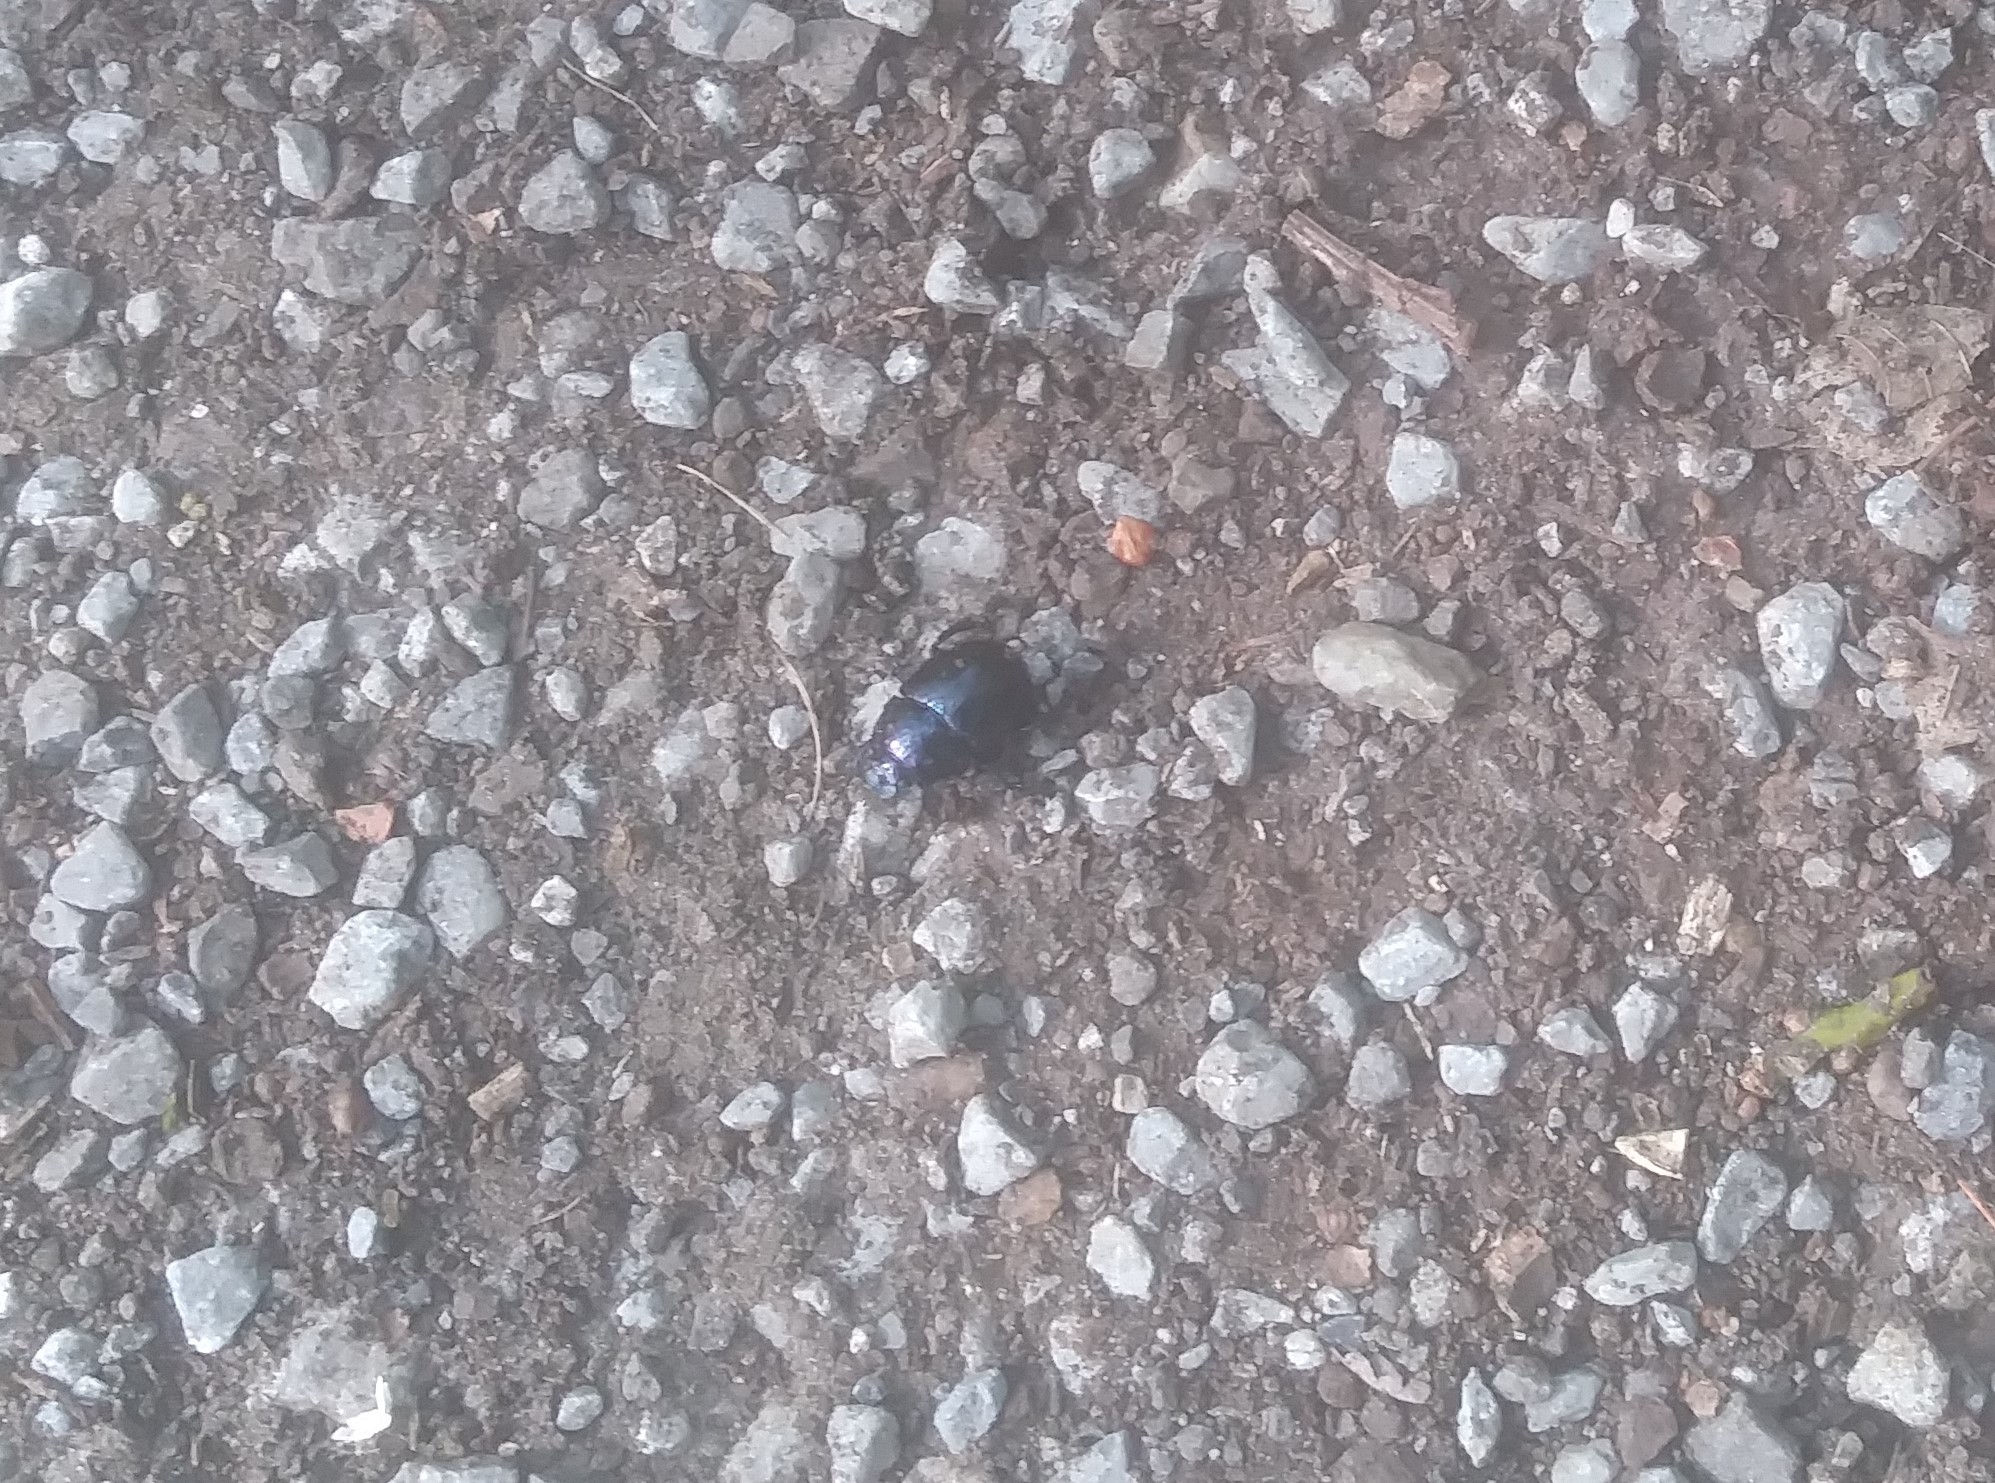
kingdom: Animalia
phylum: Arthropoda
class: Insecta
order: Coleoptera
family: Geotrupidae
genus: Anoplotrupes
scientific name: Anoplotrupes stercorosus
